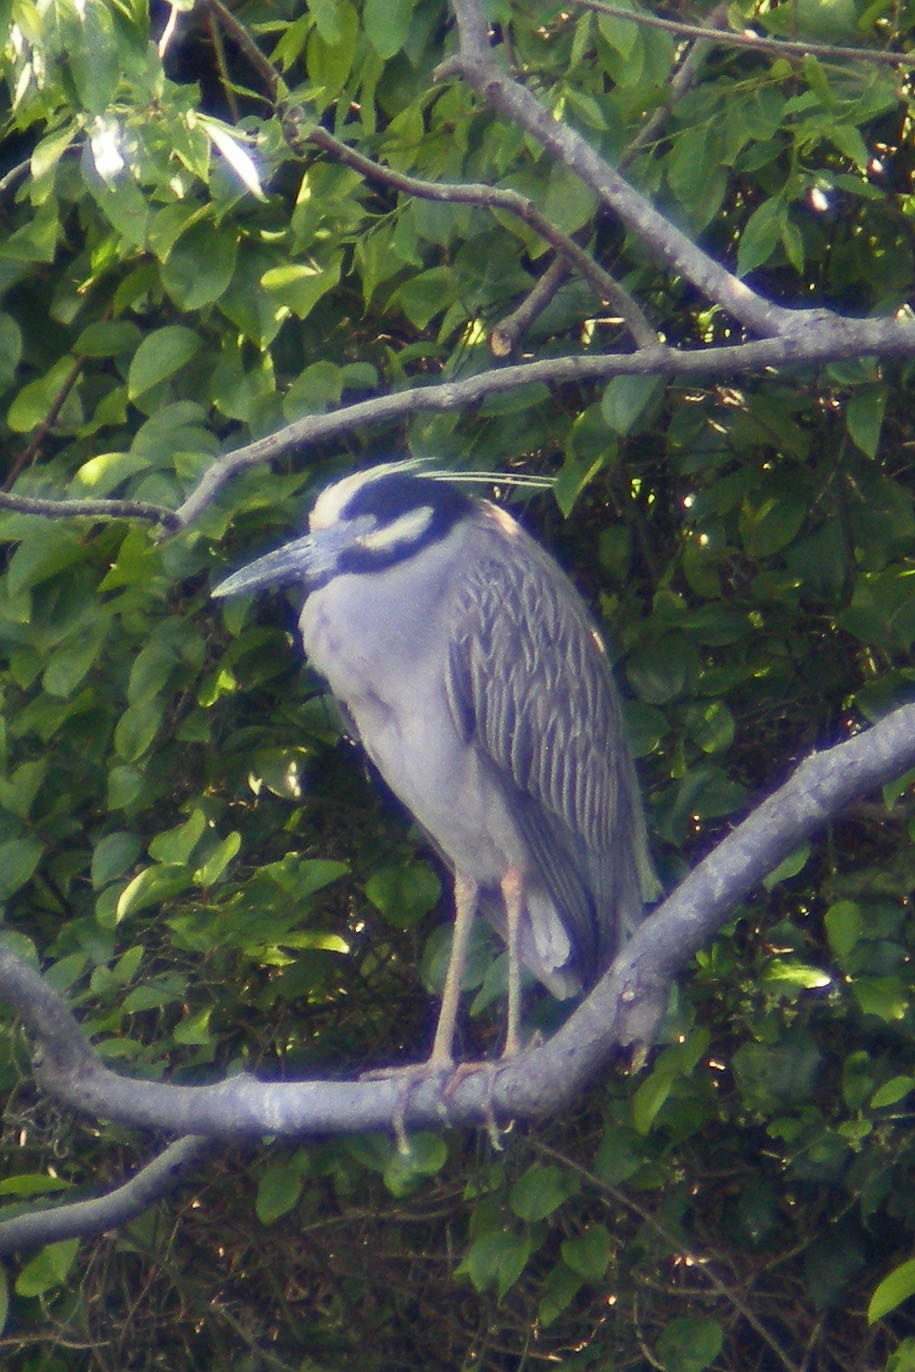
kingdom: Animalia
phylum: Chordata
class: Aves
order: Pelecaniformes
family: Ardeidae
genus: Nyctanassa
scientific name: Nyctanassa violacea
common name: Yellow-crowned night heron
